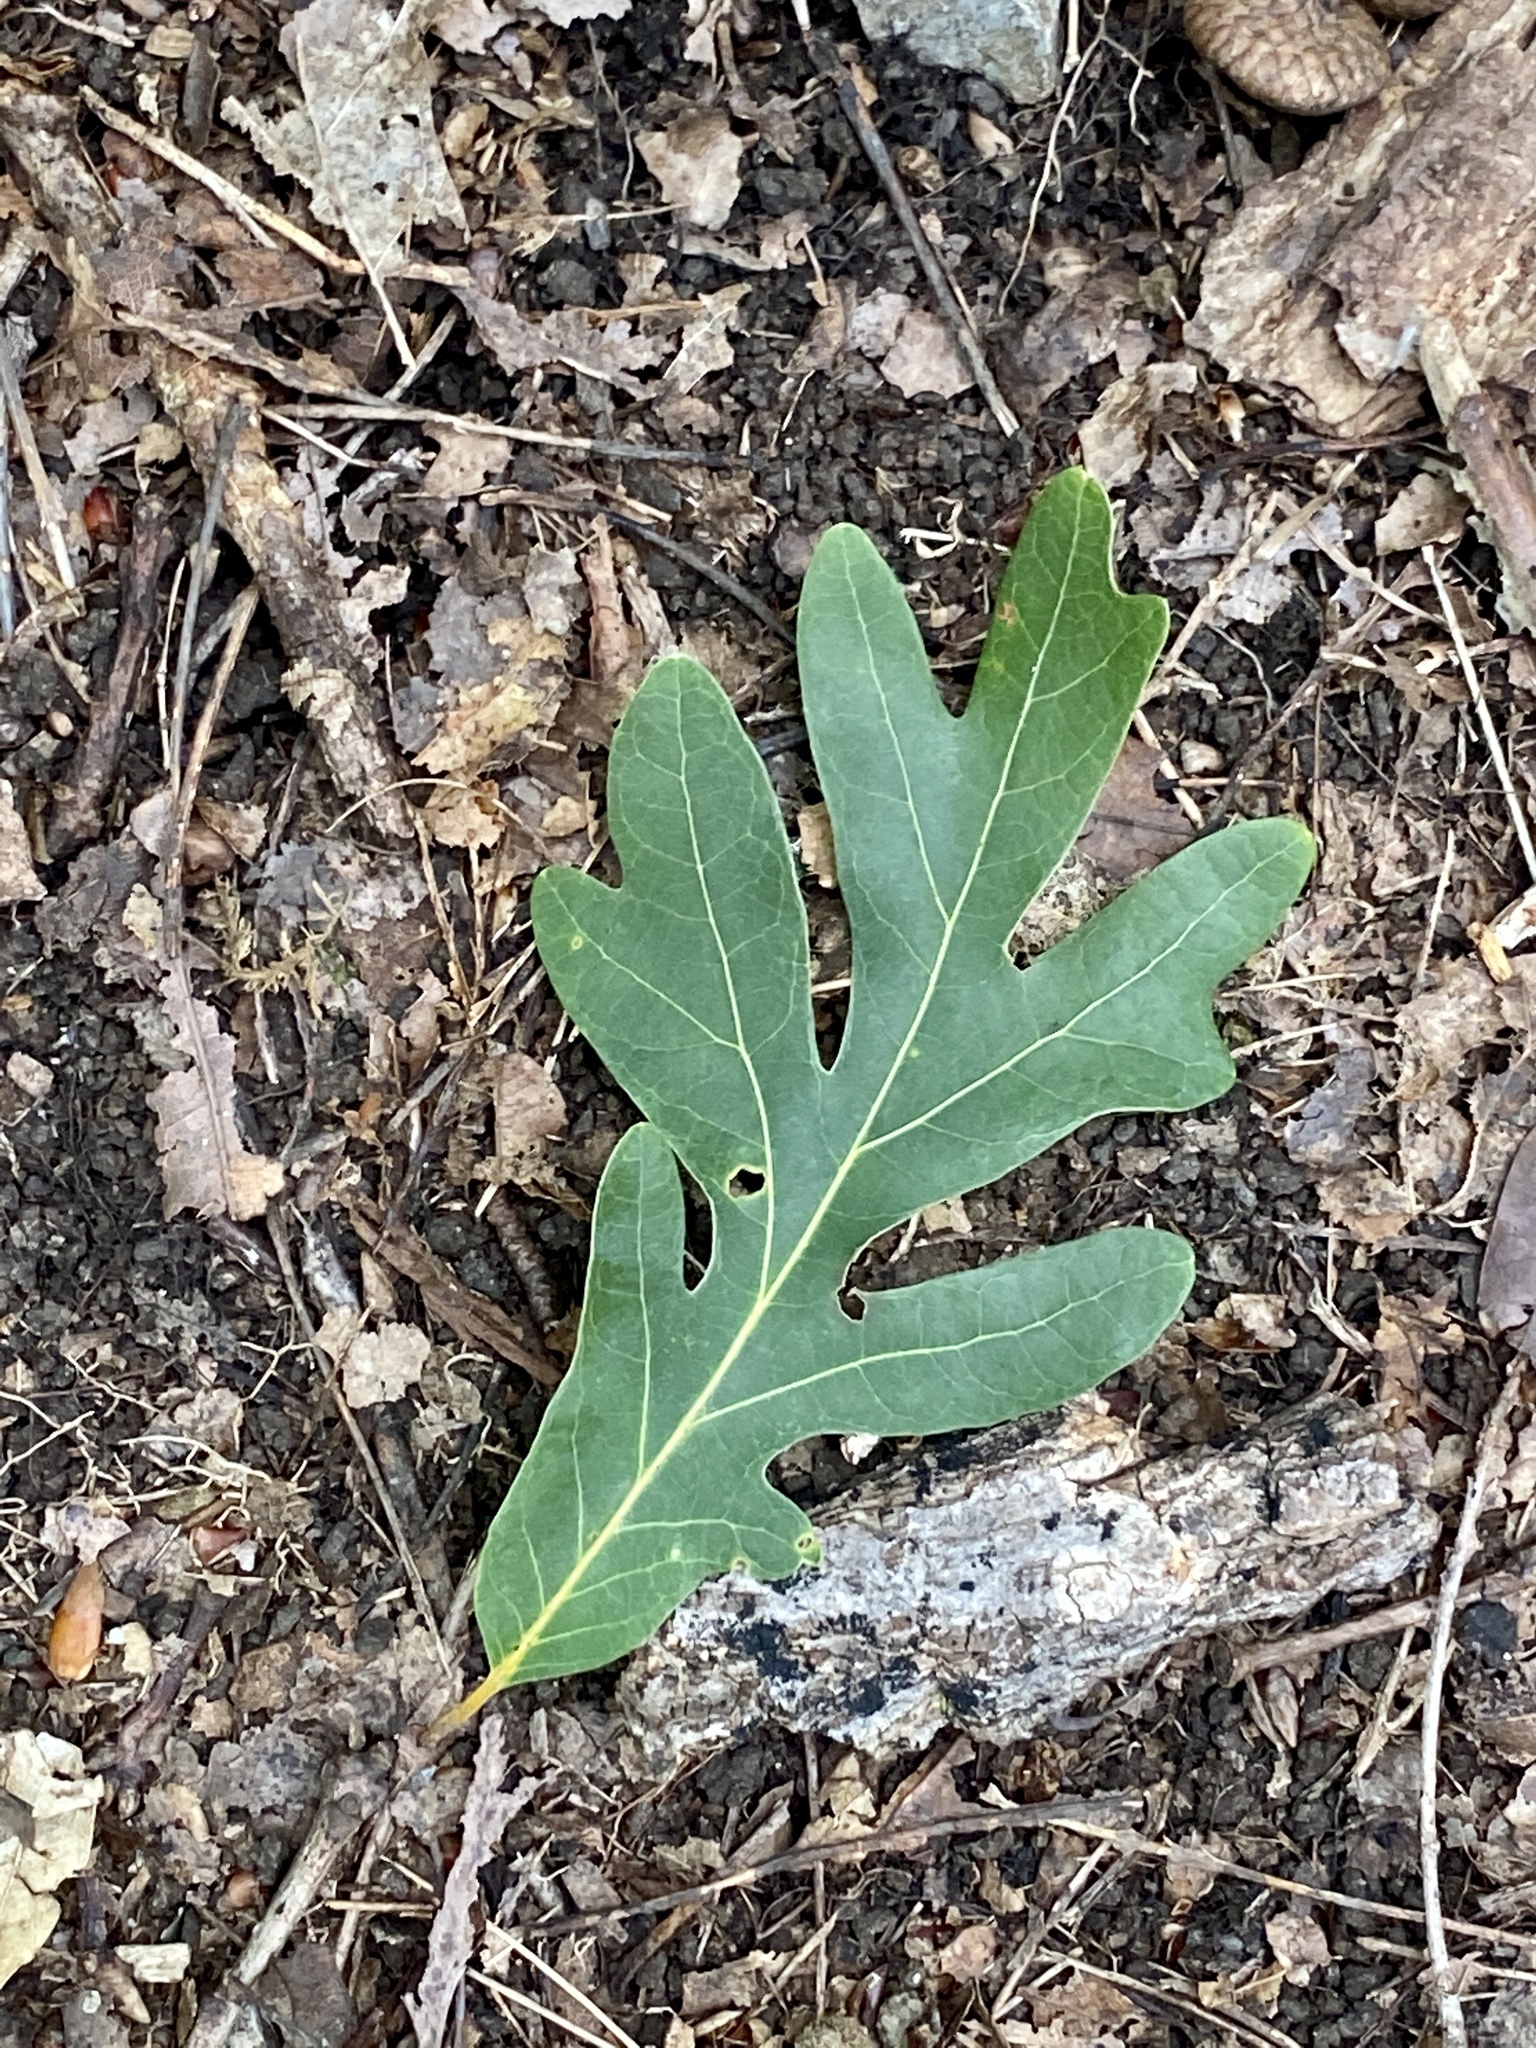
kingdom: Plantae
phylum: Tracheophyta
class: Magnoliopsida
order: Fagales
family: Fagaceae
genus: Quercus
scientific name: Quercus alba
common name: White oak
